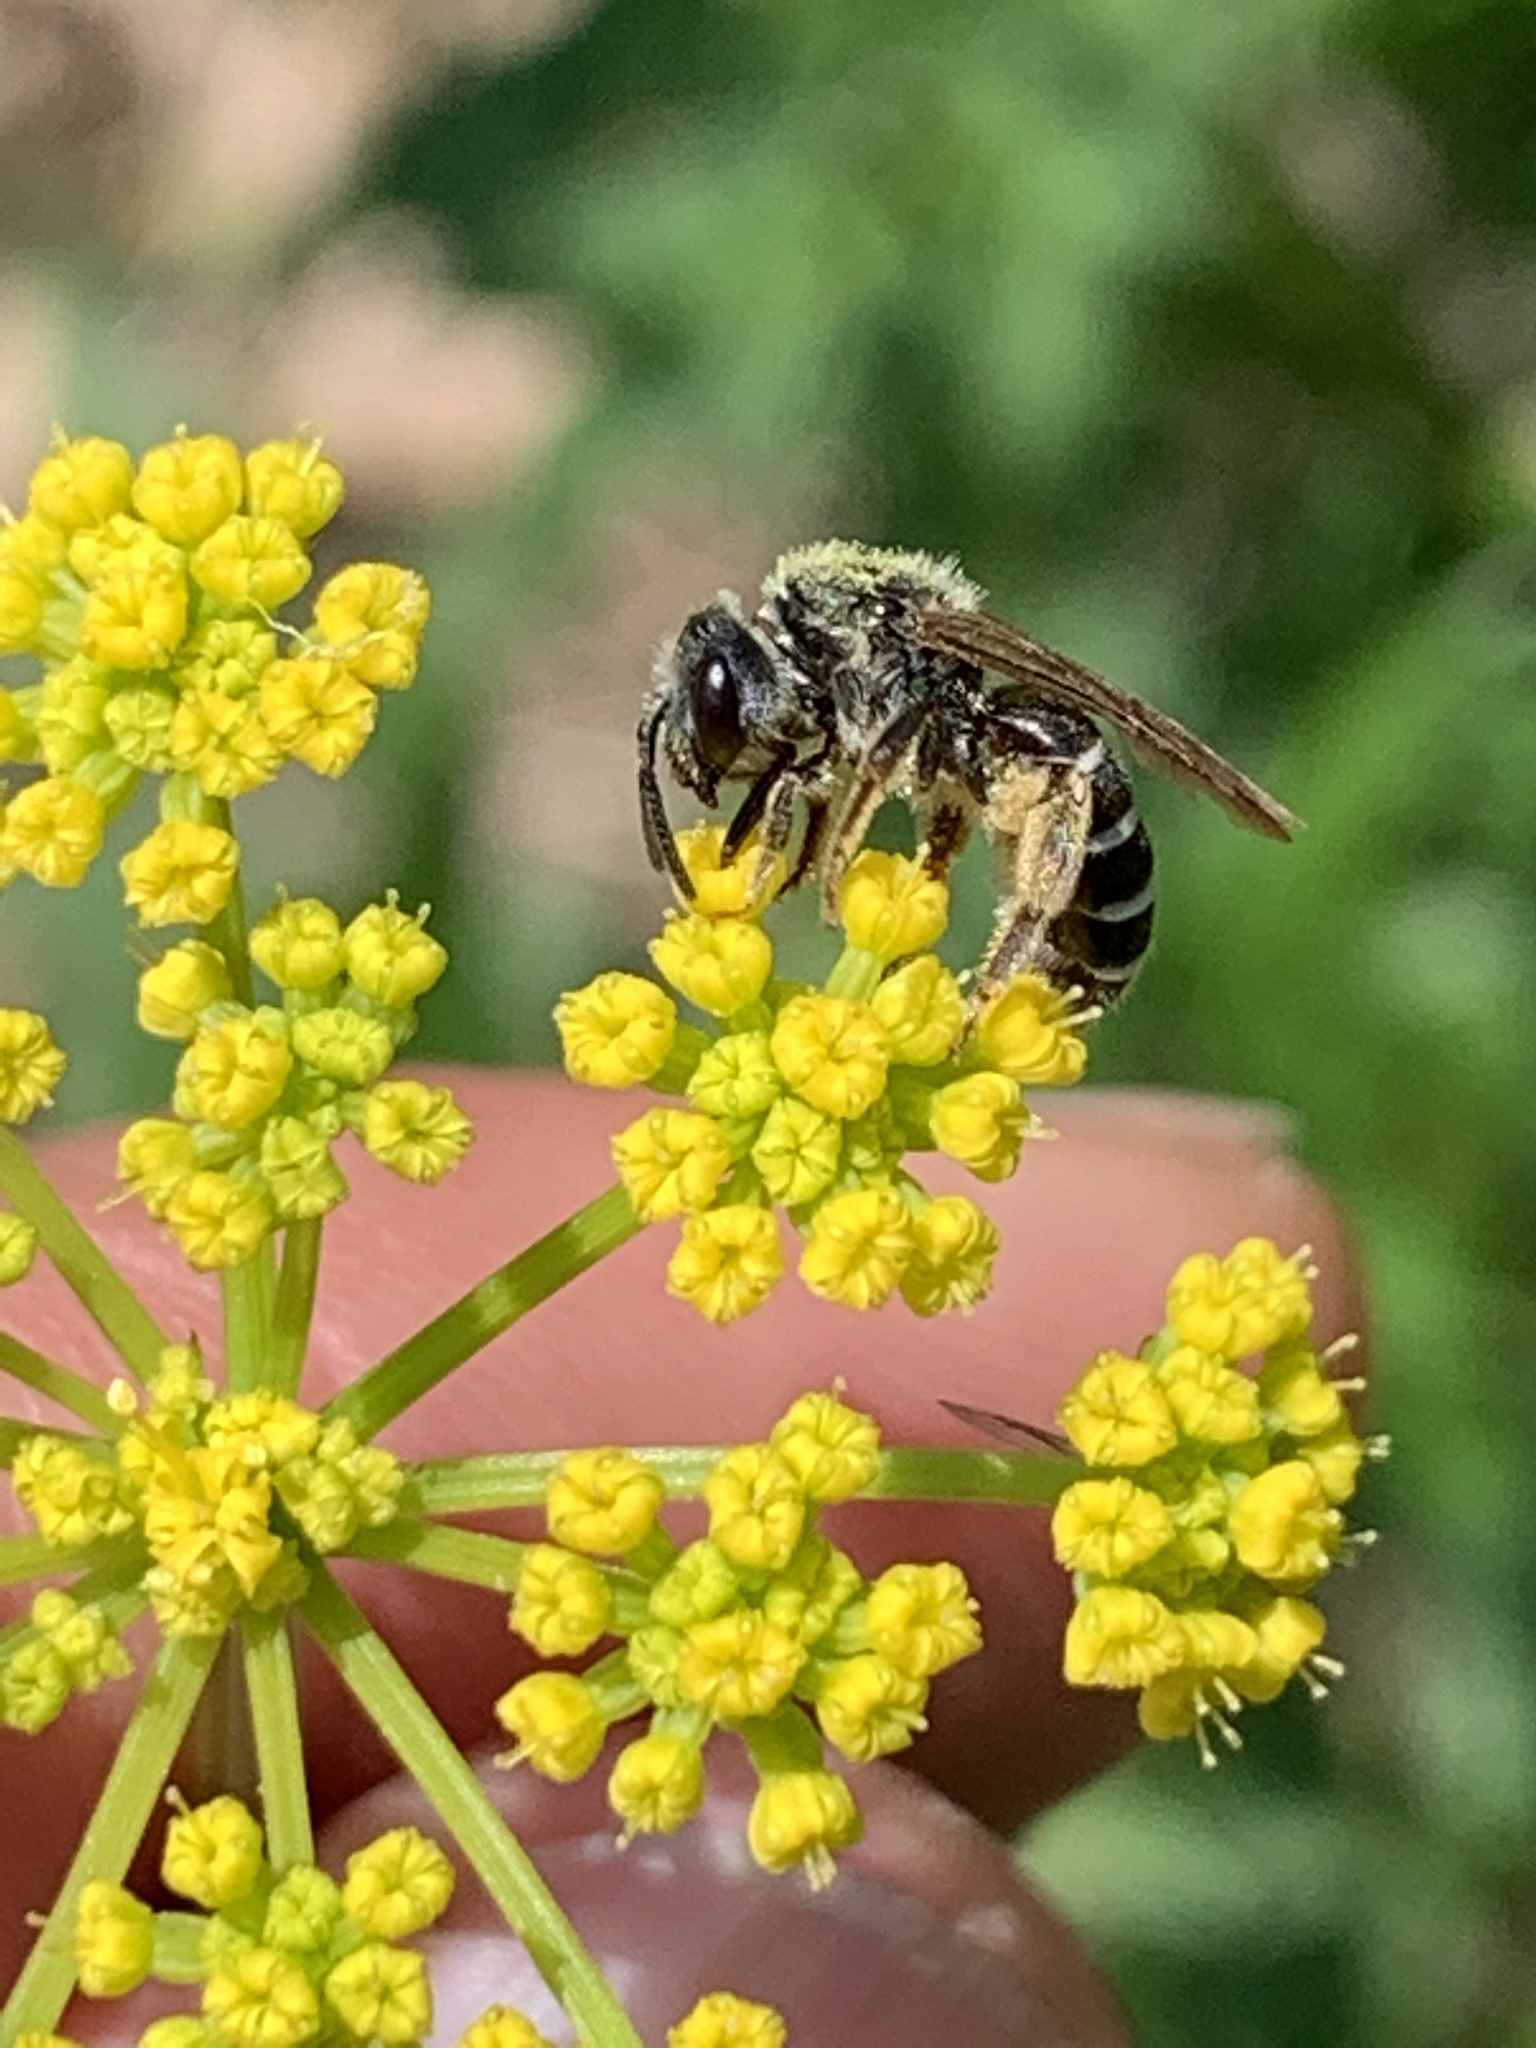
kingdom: Animalia
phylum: Arthropoda
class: Insecta
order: Hymenoptera
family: Halictidae
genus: Halictus
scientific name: Halictus rubicundus
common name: Orange-legged furrow bee
